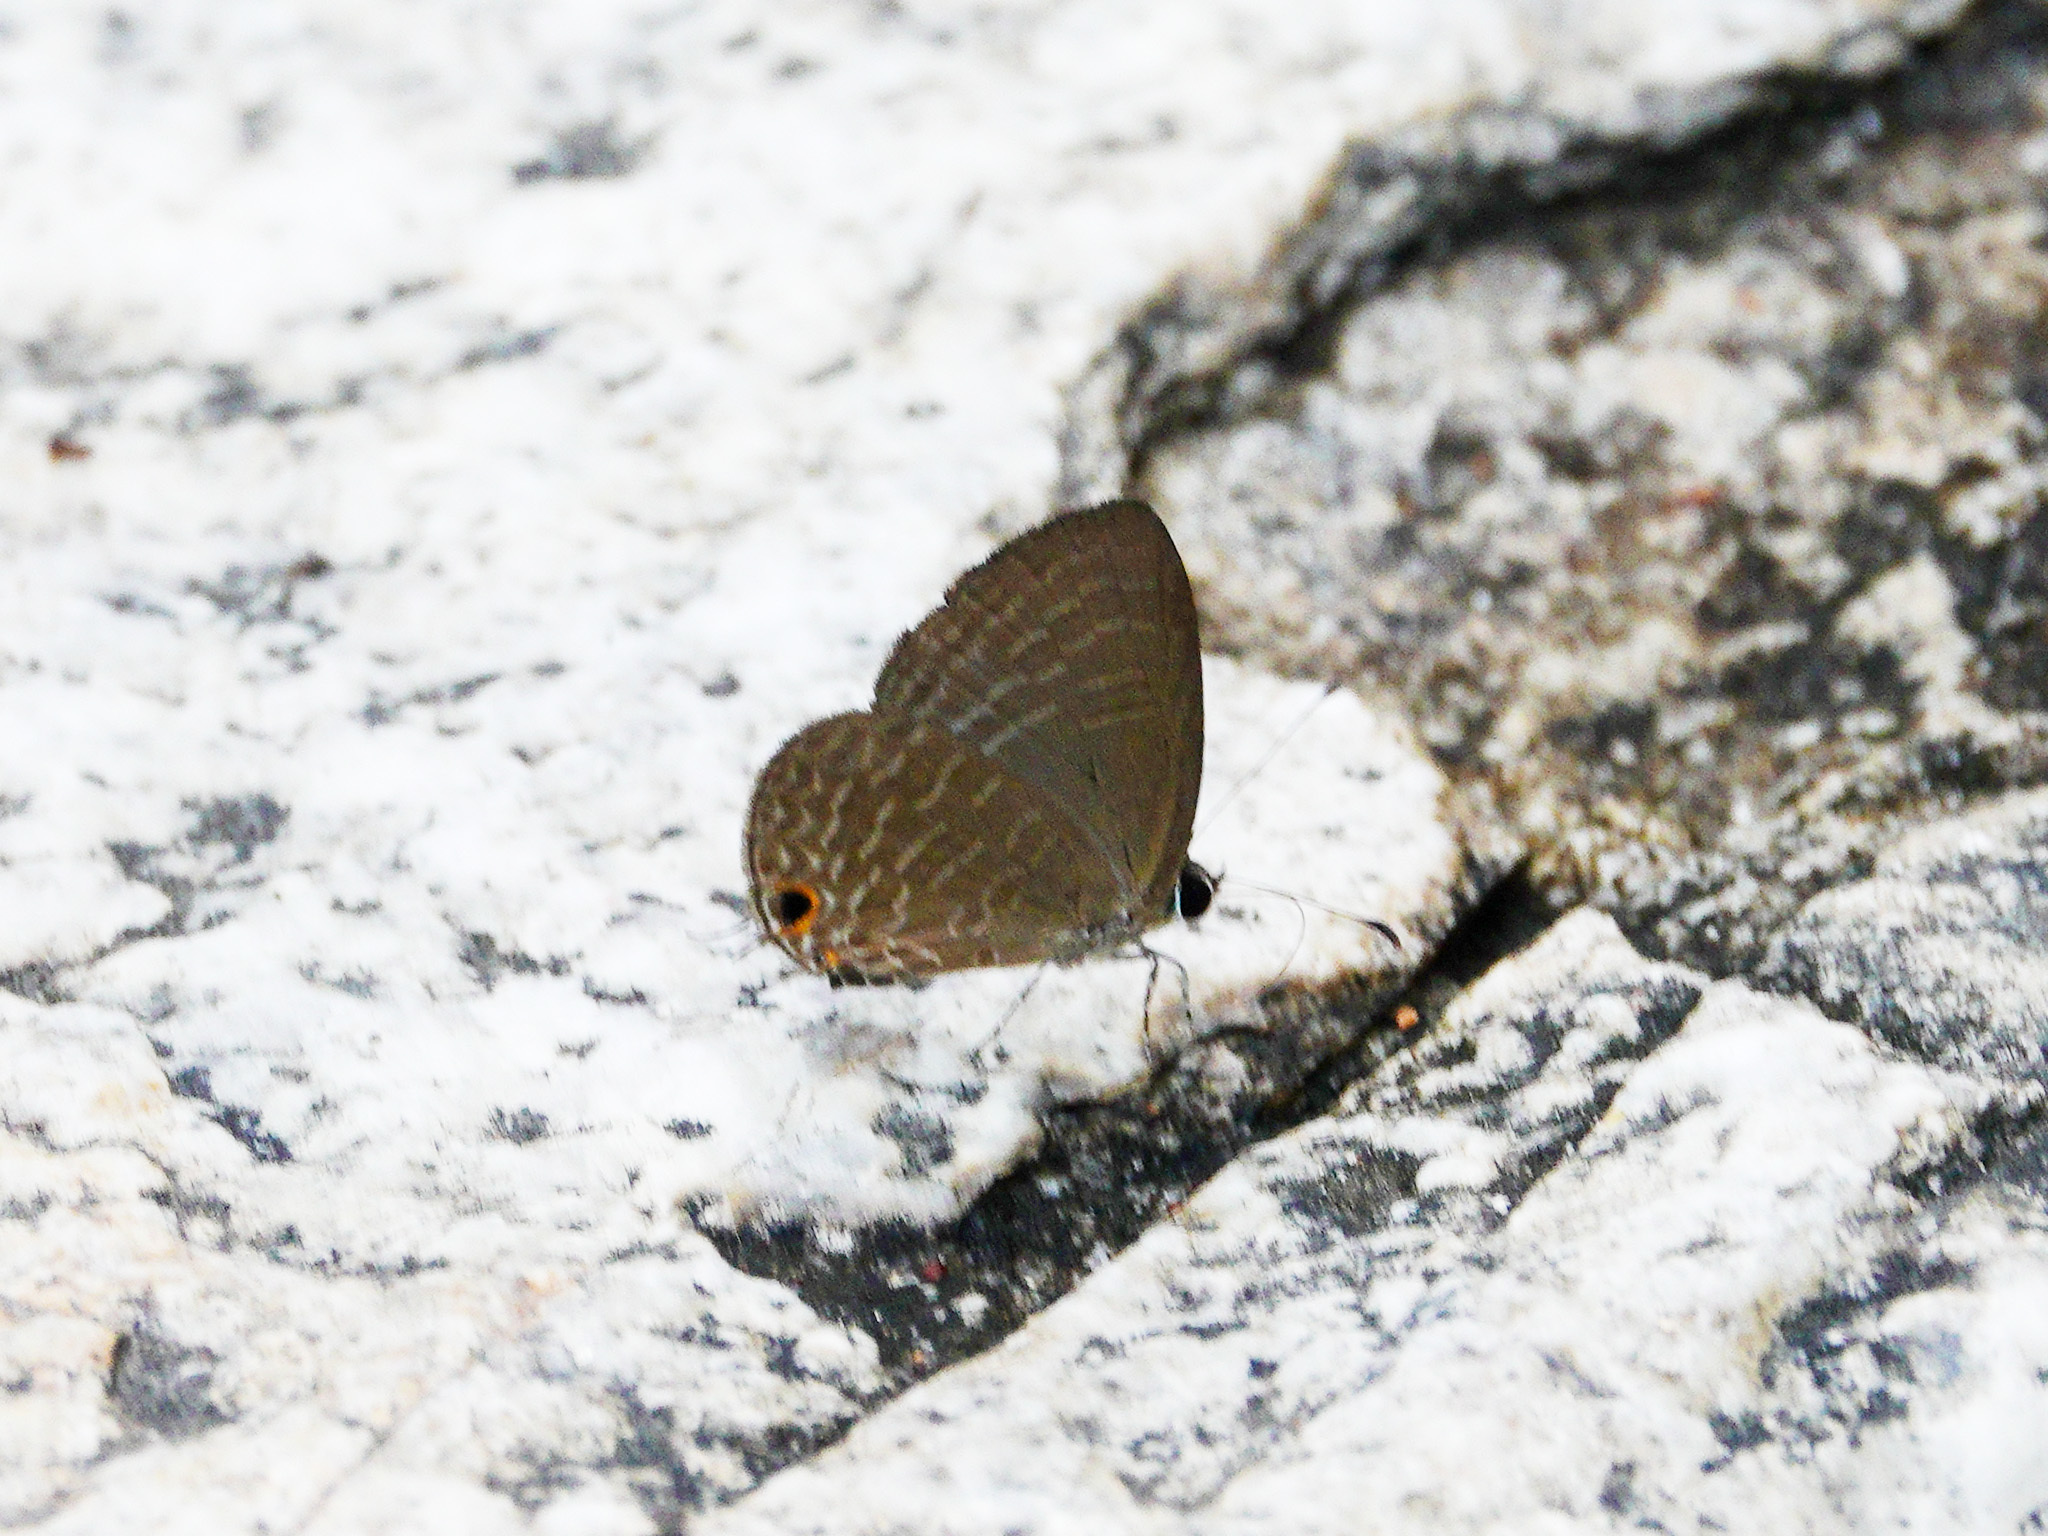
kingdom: Animalia
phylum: Arthropoda
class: Insecta
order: Lepidoptera
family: Lycaenidae
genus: Jamides
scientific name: Jamides bochus
